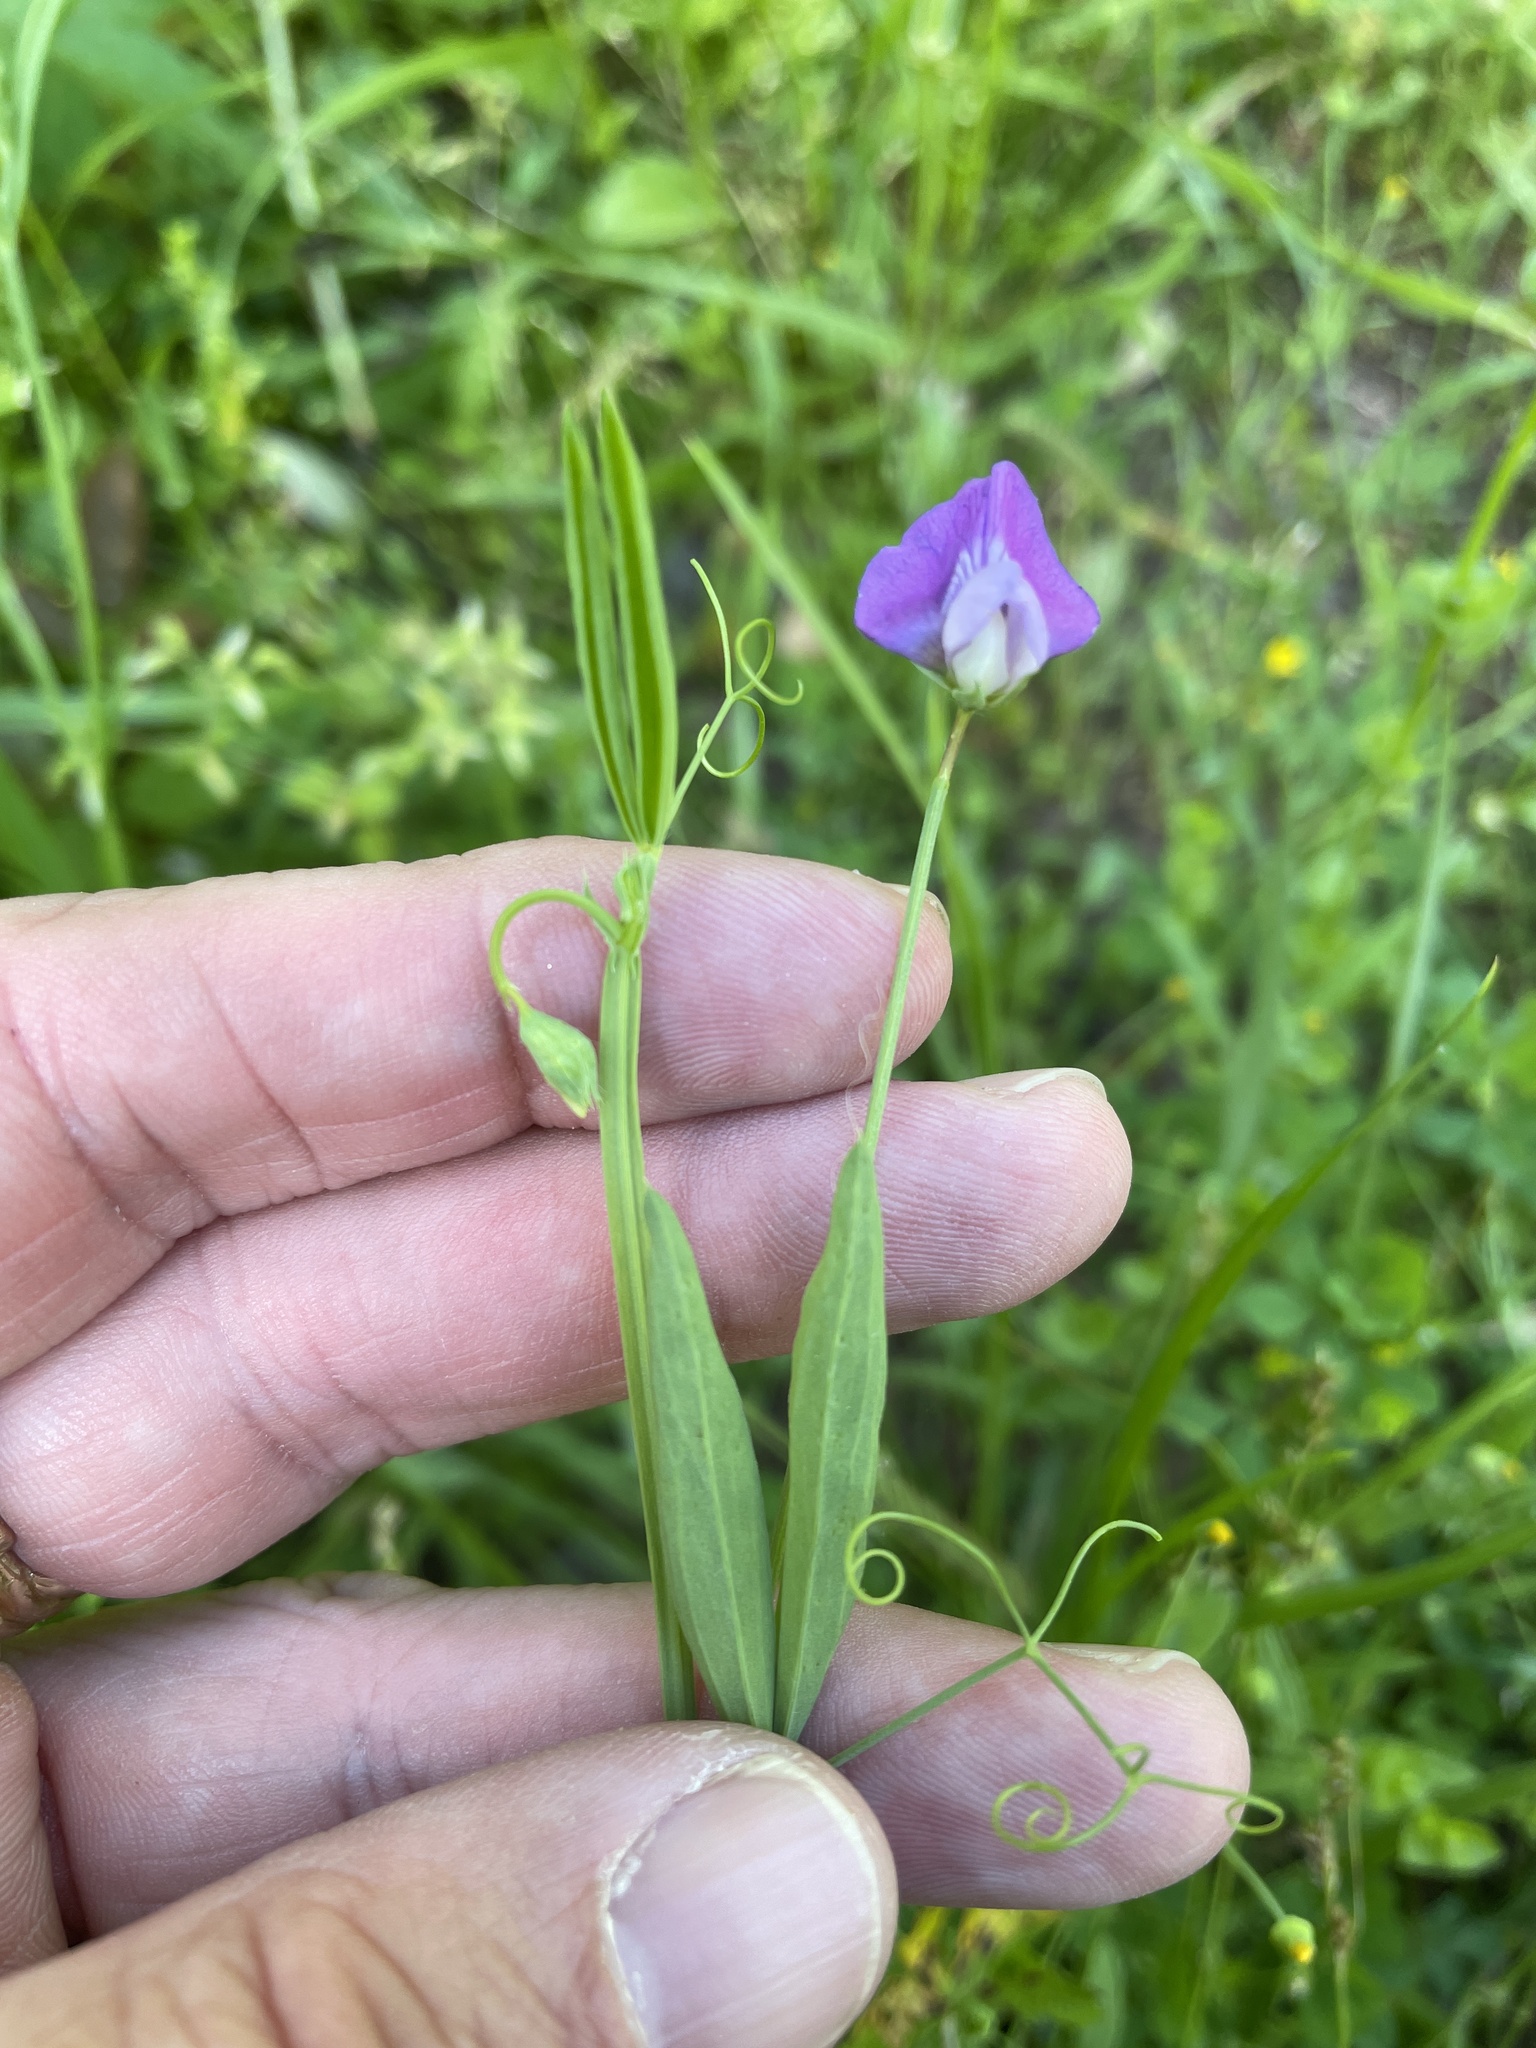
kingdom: Plantae
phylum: Tracheophyta
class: Magnoliopsida
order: Fabales
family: Fabaceae
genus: Lathyrus
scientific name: Lathyrus hirsutus
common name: Hairy vetchling
